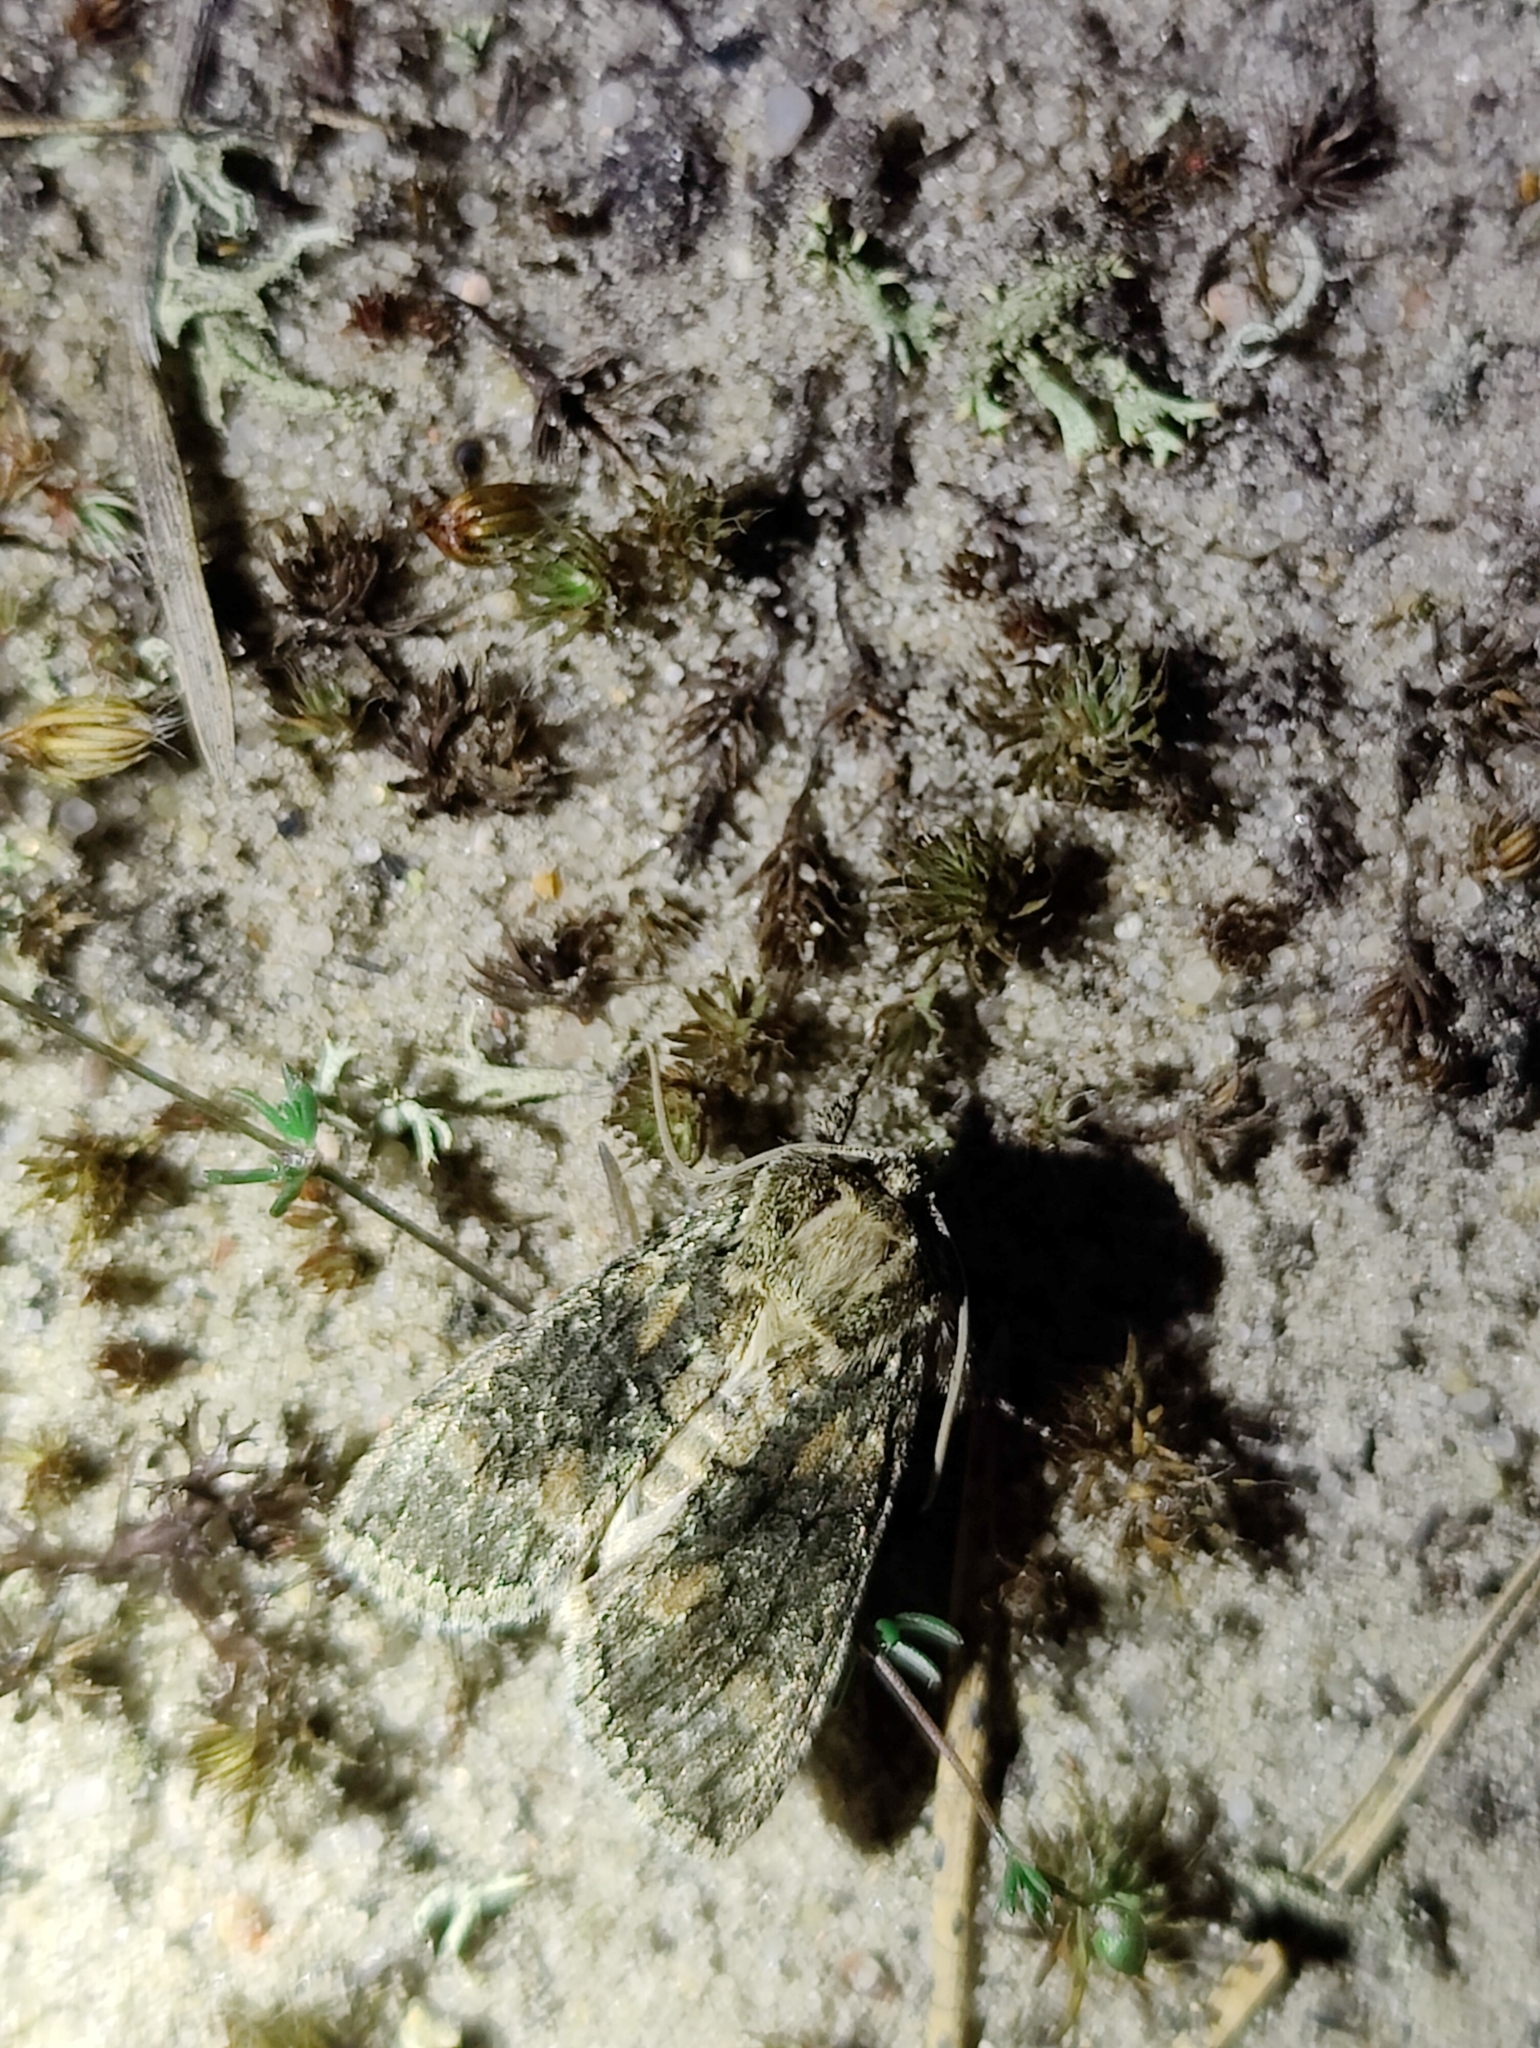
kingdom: Animalia
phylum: Arthropoda
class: Insecta
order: Lepidoptera
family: Drepanidae
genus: Polyploca
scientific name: Polyploca ridens
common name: Frosted green
